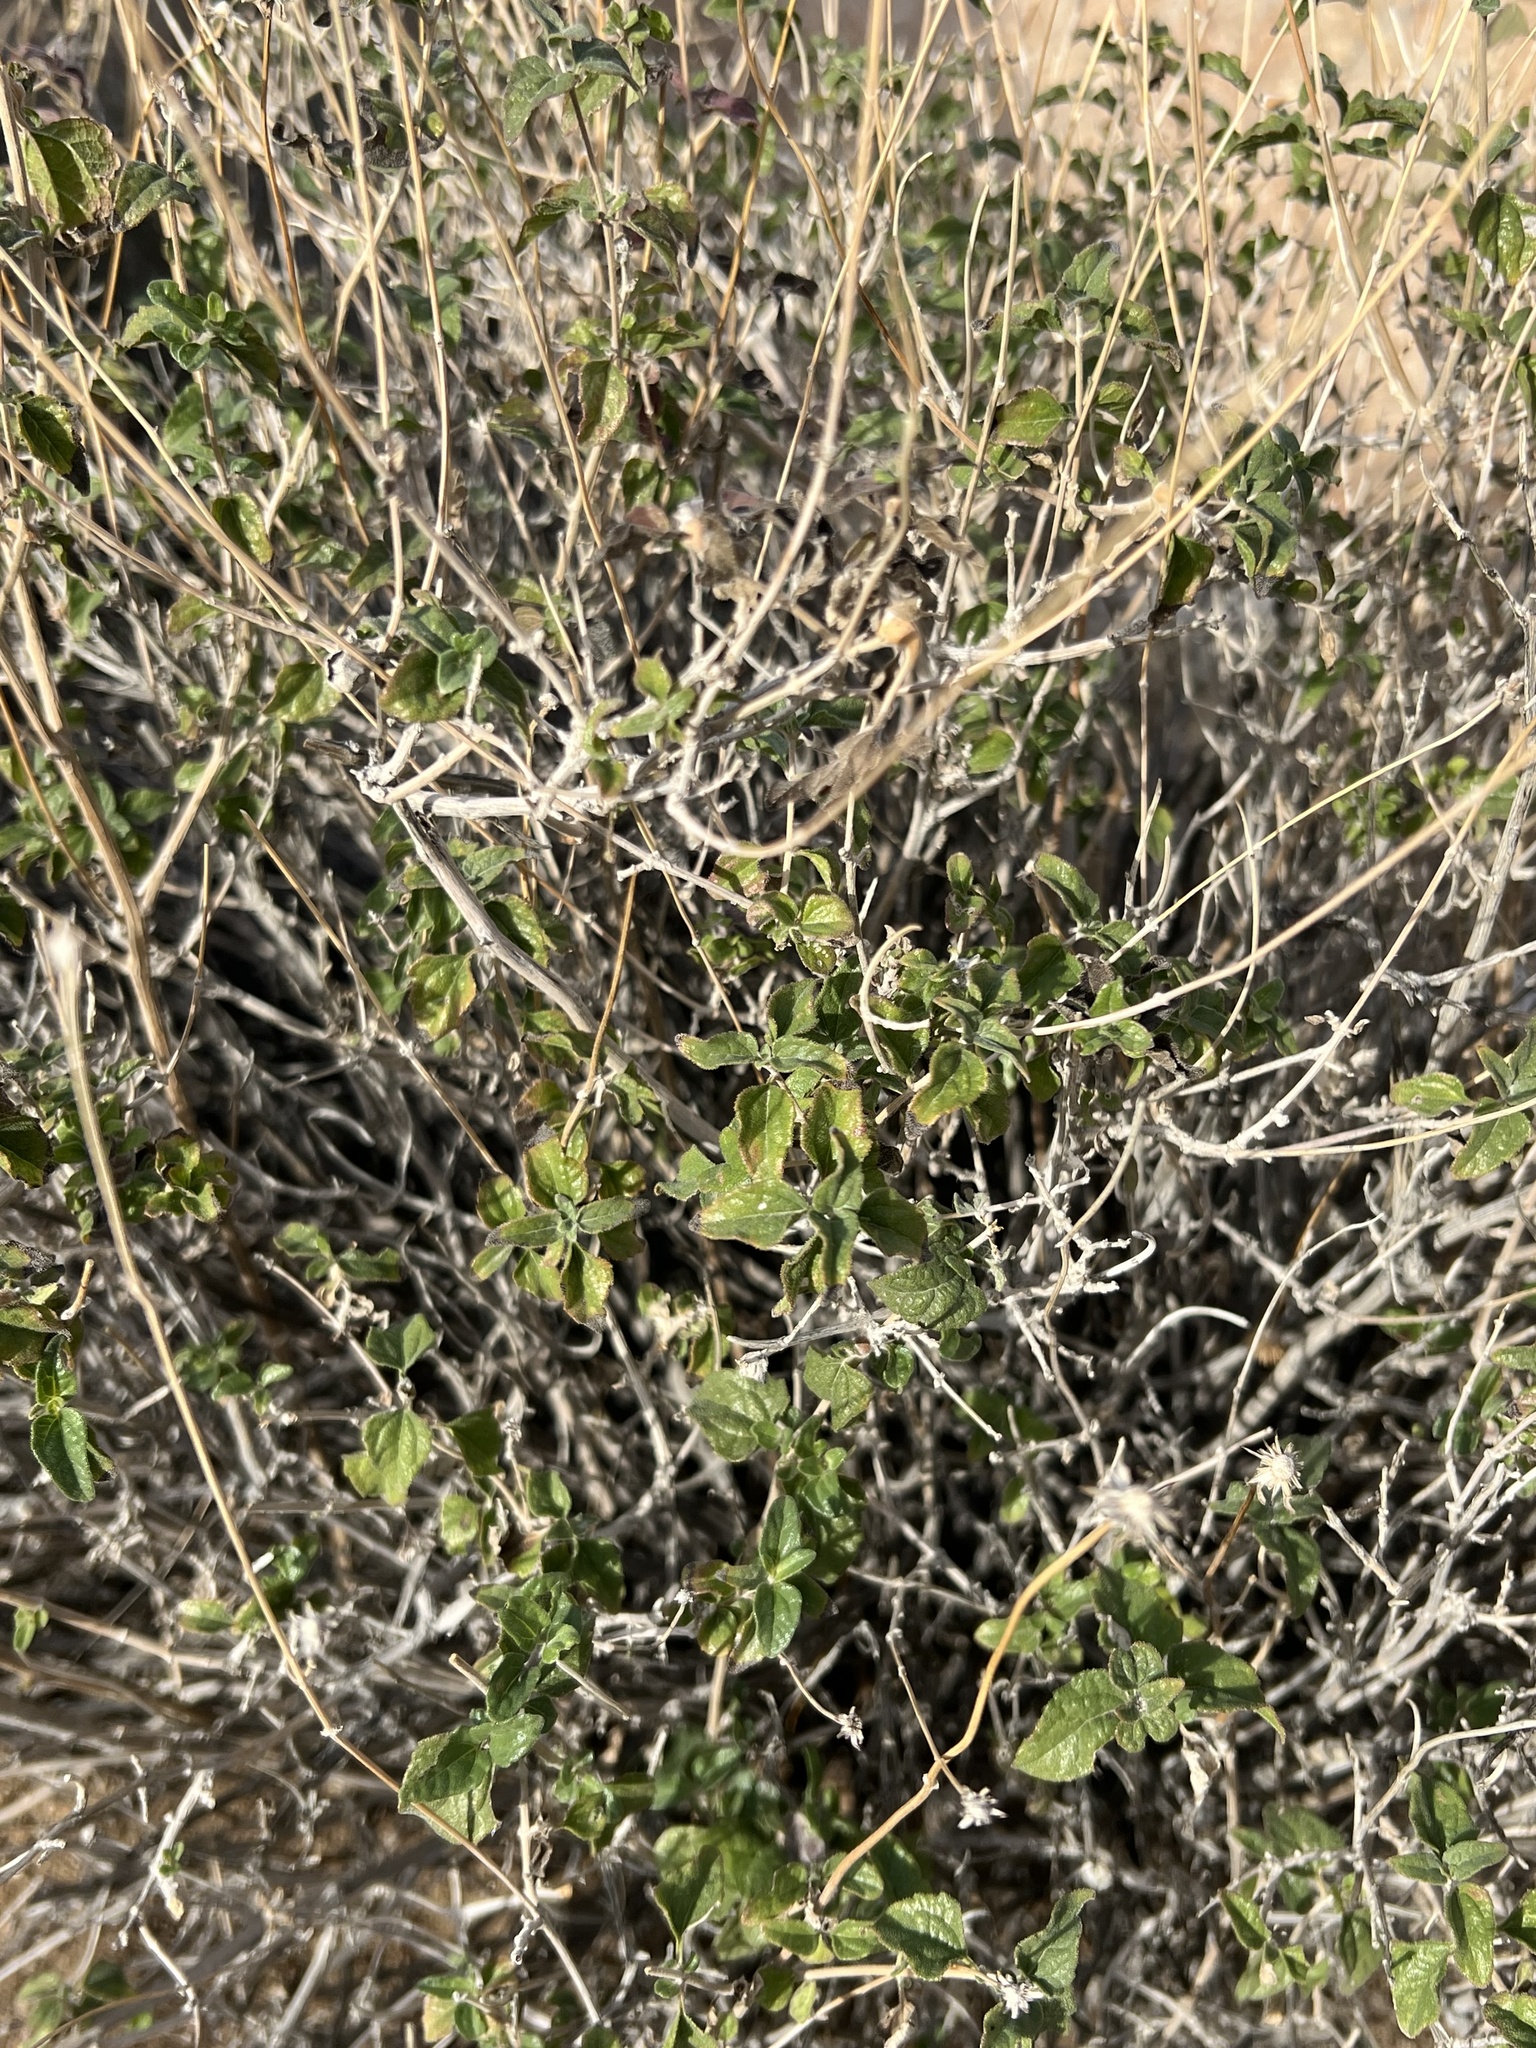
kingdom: Plantae
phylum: Tracheophyta
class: Magnoliopsida
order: Asterales
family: Asteraceae
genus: Bahiopsis
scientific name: Bahiopsis parishii
